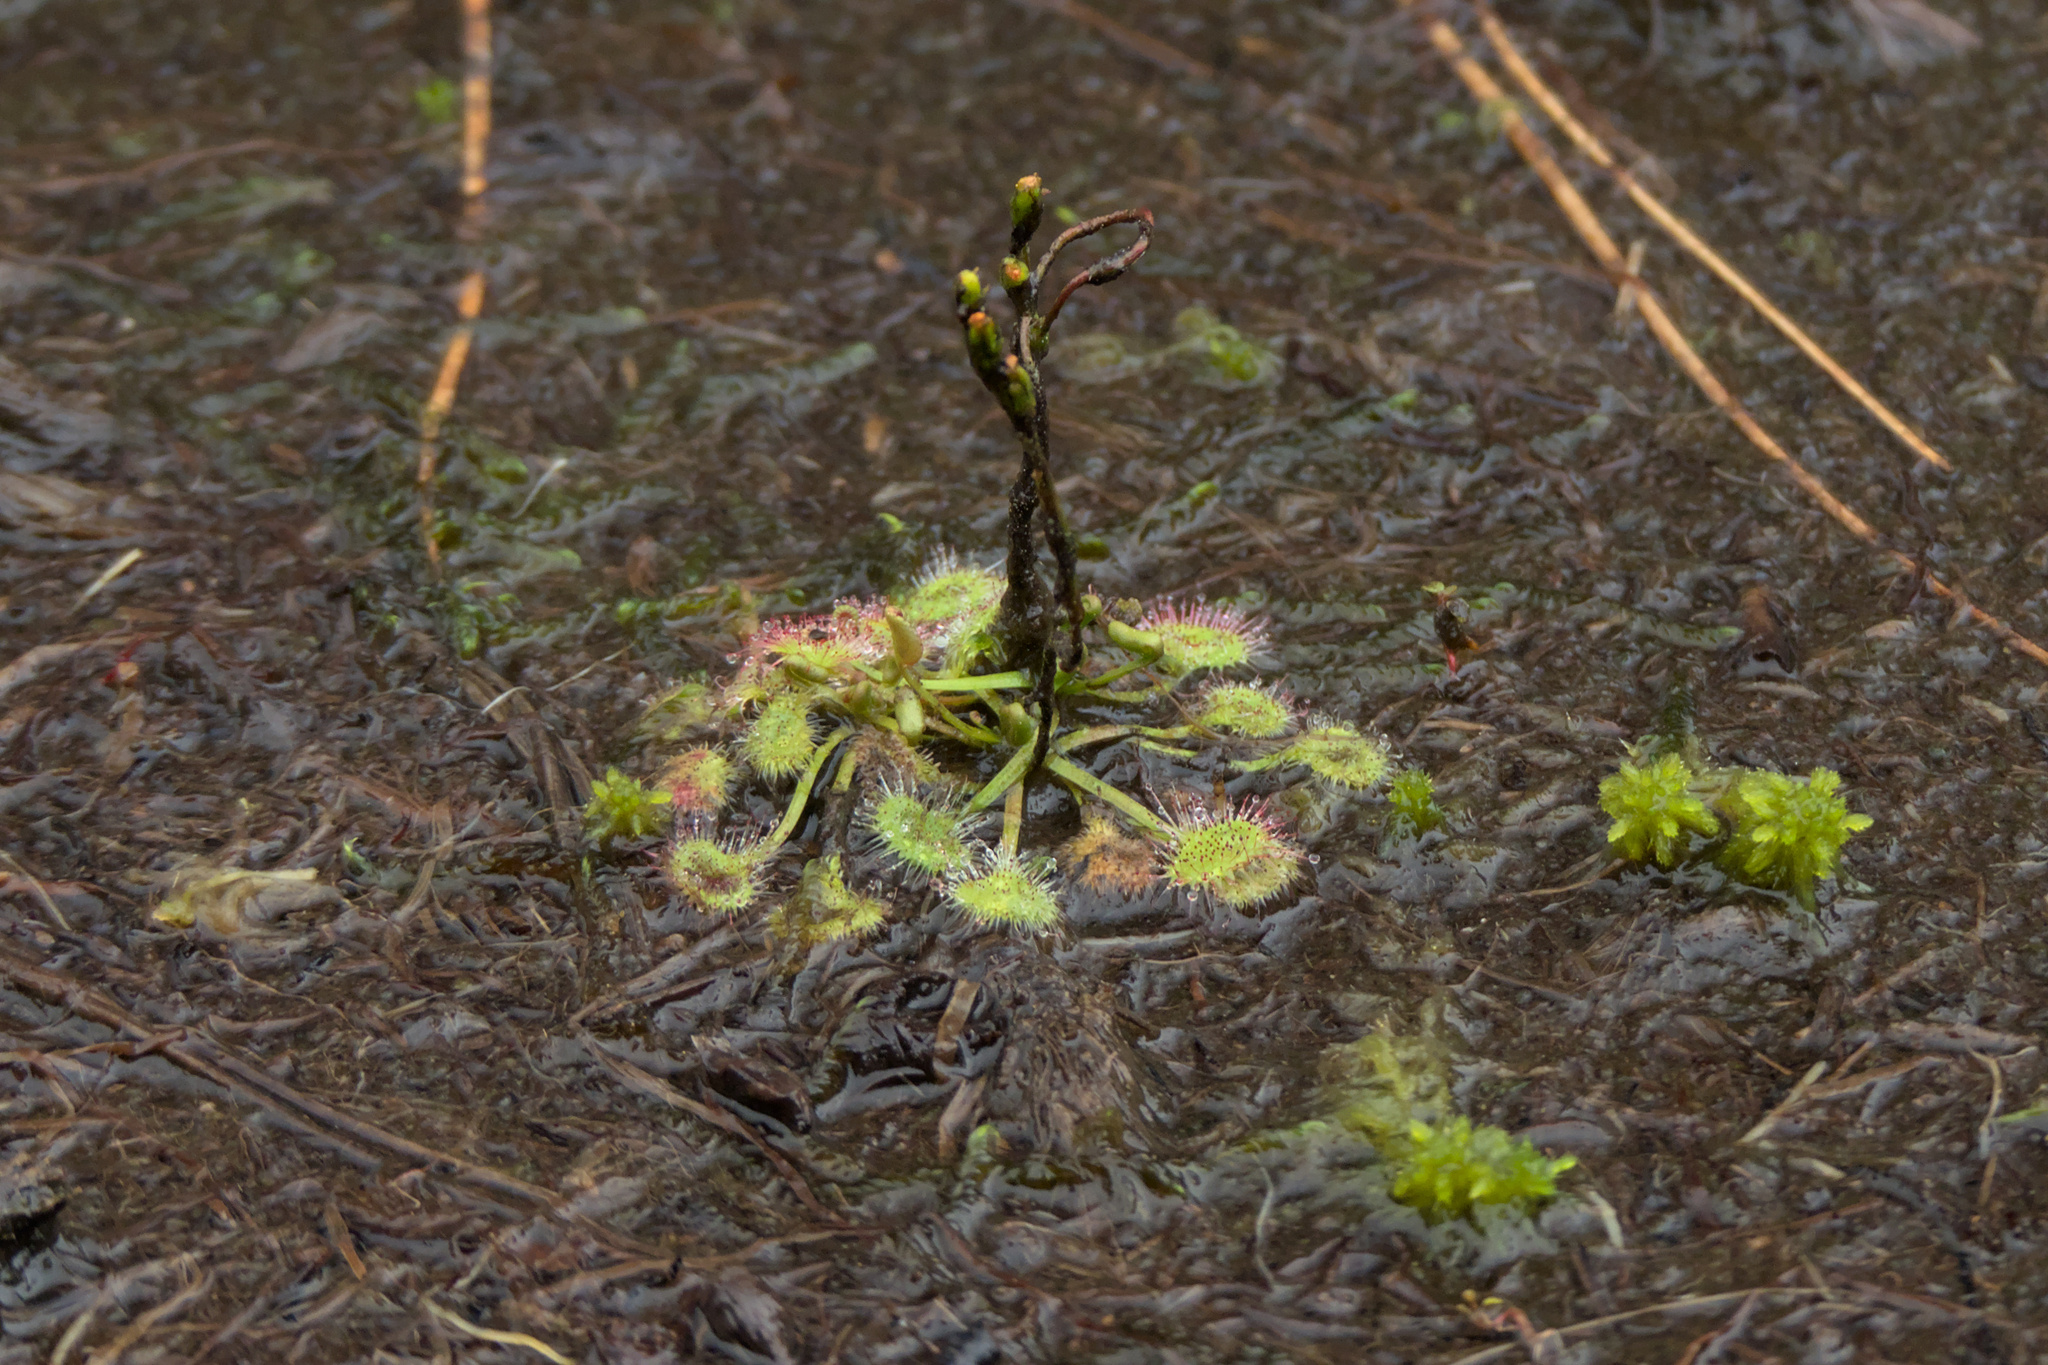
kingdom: Plantae
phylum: Tracheophyta
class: Magnoliopsida
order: Caryophyllales
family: Droseraceae
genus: Drosera
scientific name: Drosera rotundifolia
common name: Round-leaved sundew
